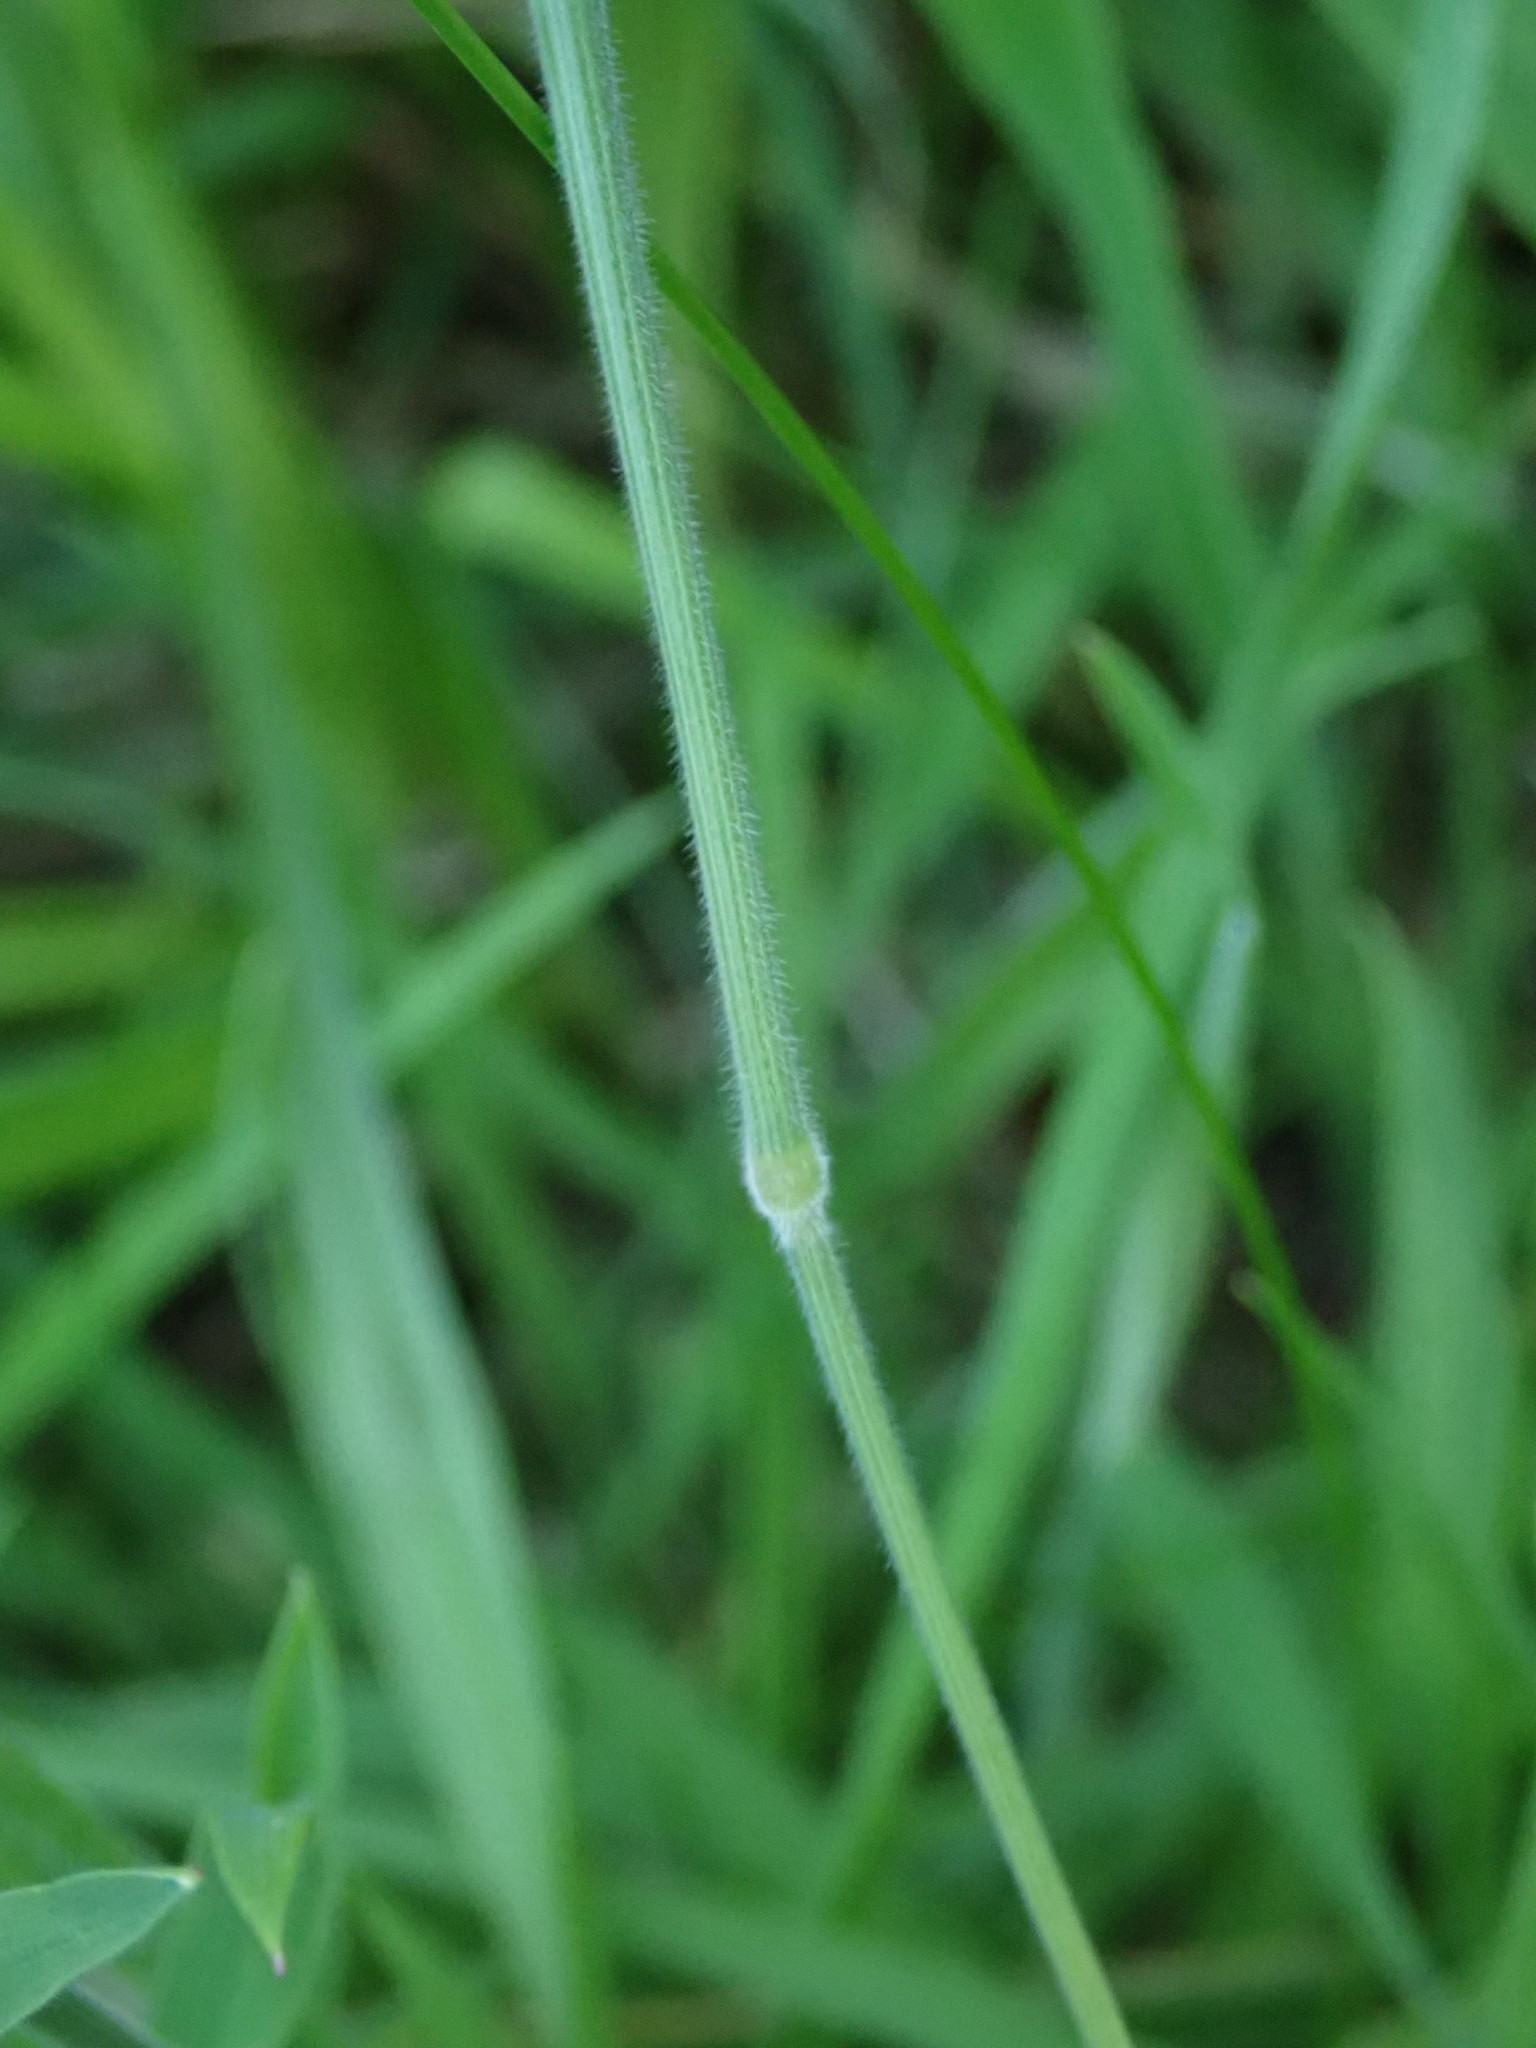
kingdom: Plantae
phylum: Tracheophyta
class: Liliopsida
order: Poales
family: Poaceae
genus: Holcus
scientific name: Holcus lanatus
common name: Yorkshire-fog
